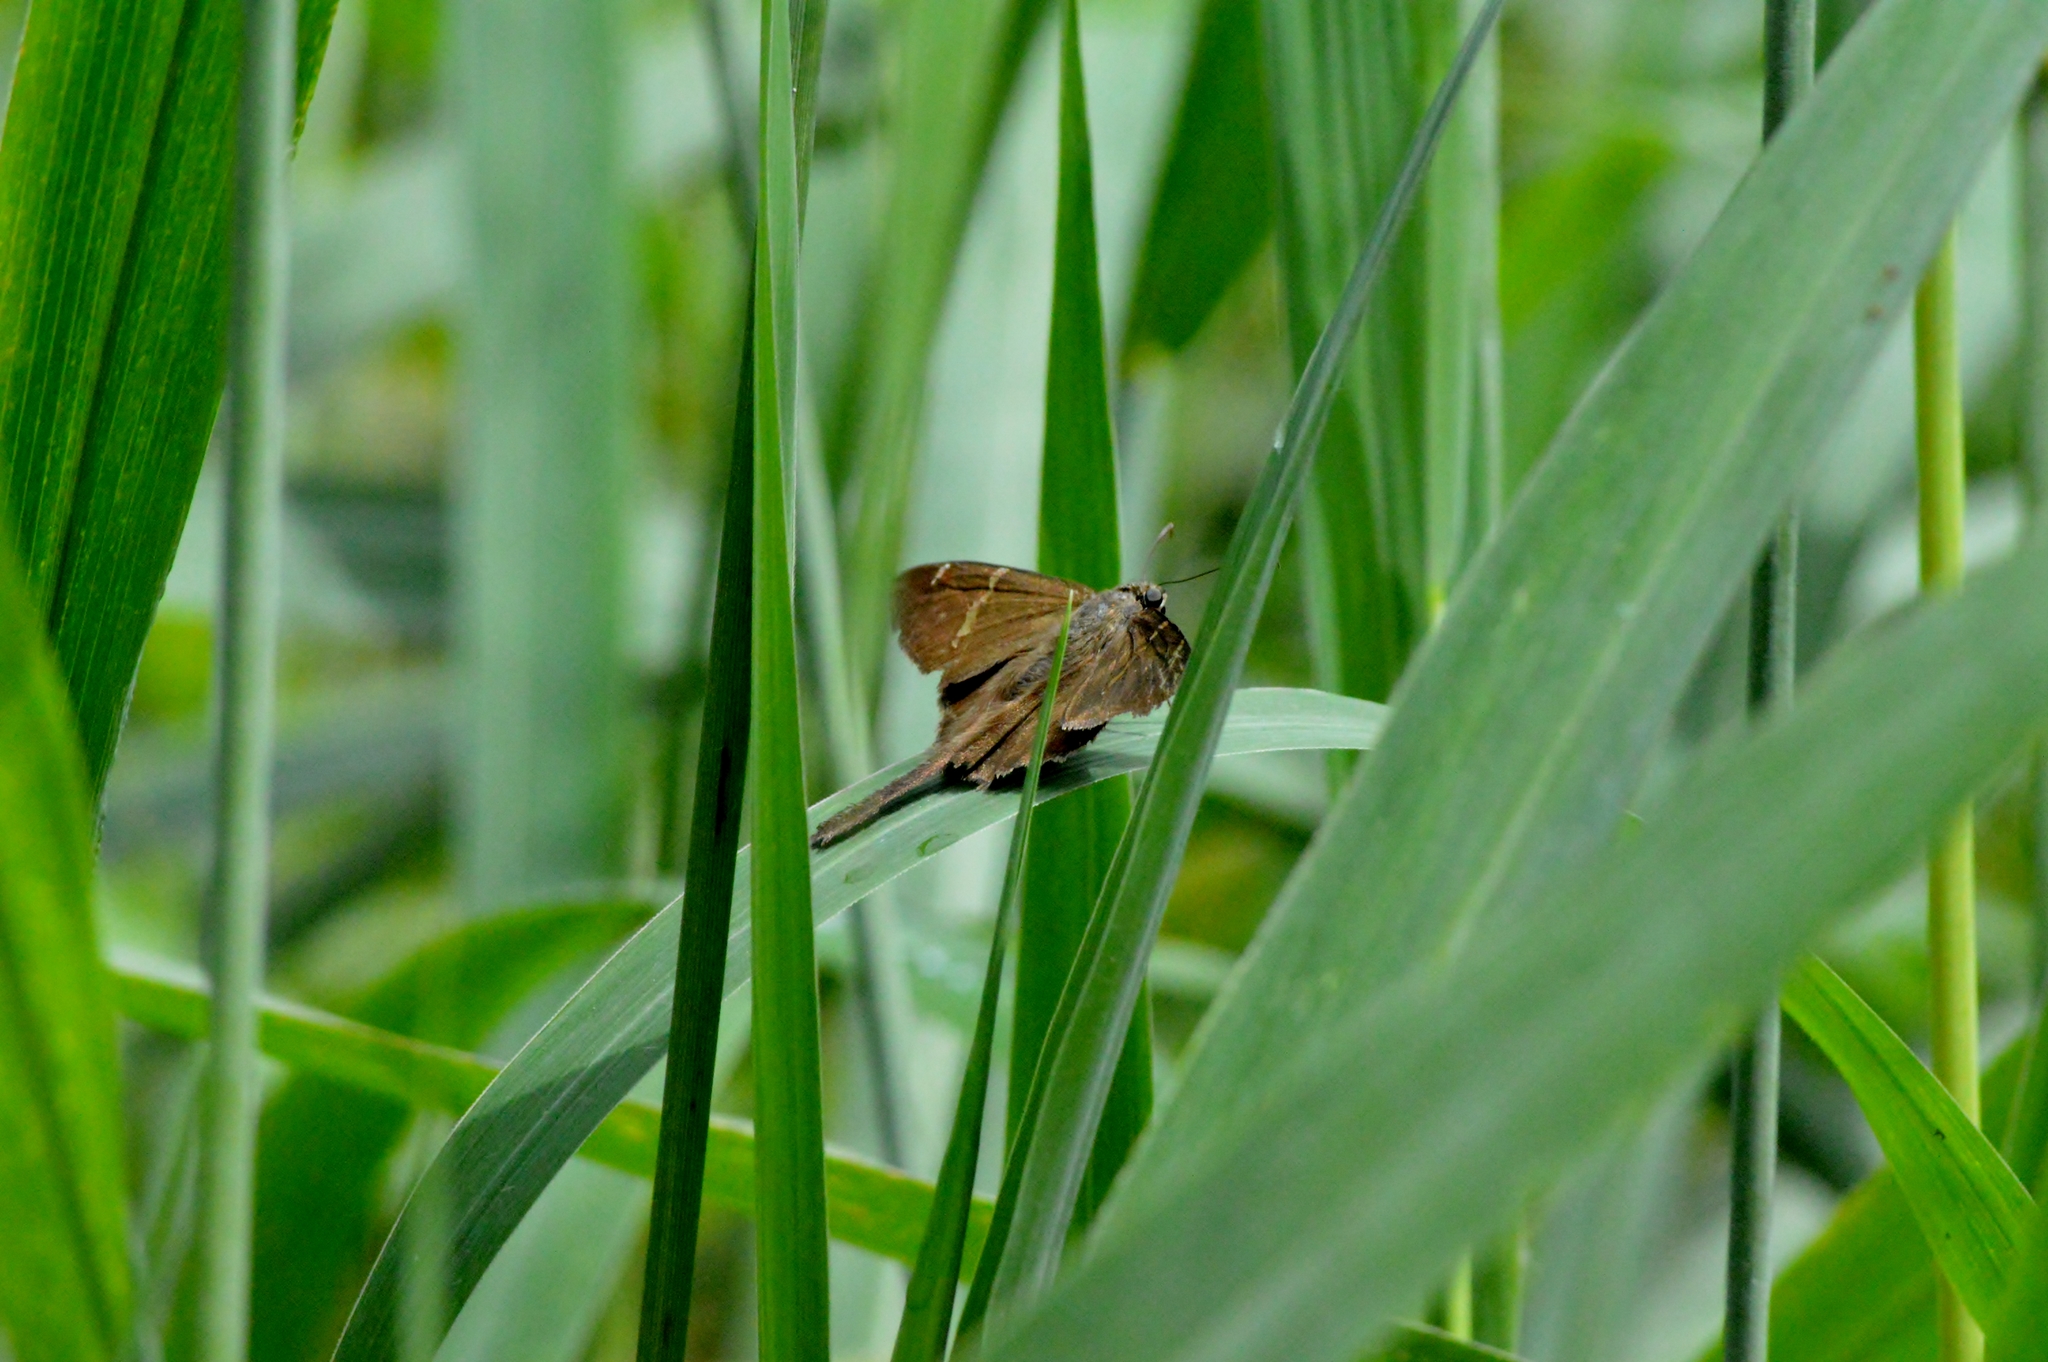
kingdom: Animalia
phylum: Arthropoda
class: Insecta
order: Lepidoptera
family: Hesperiidae
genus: Urbanus
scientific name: Urbanus procne
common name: Brown longtail
